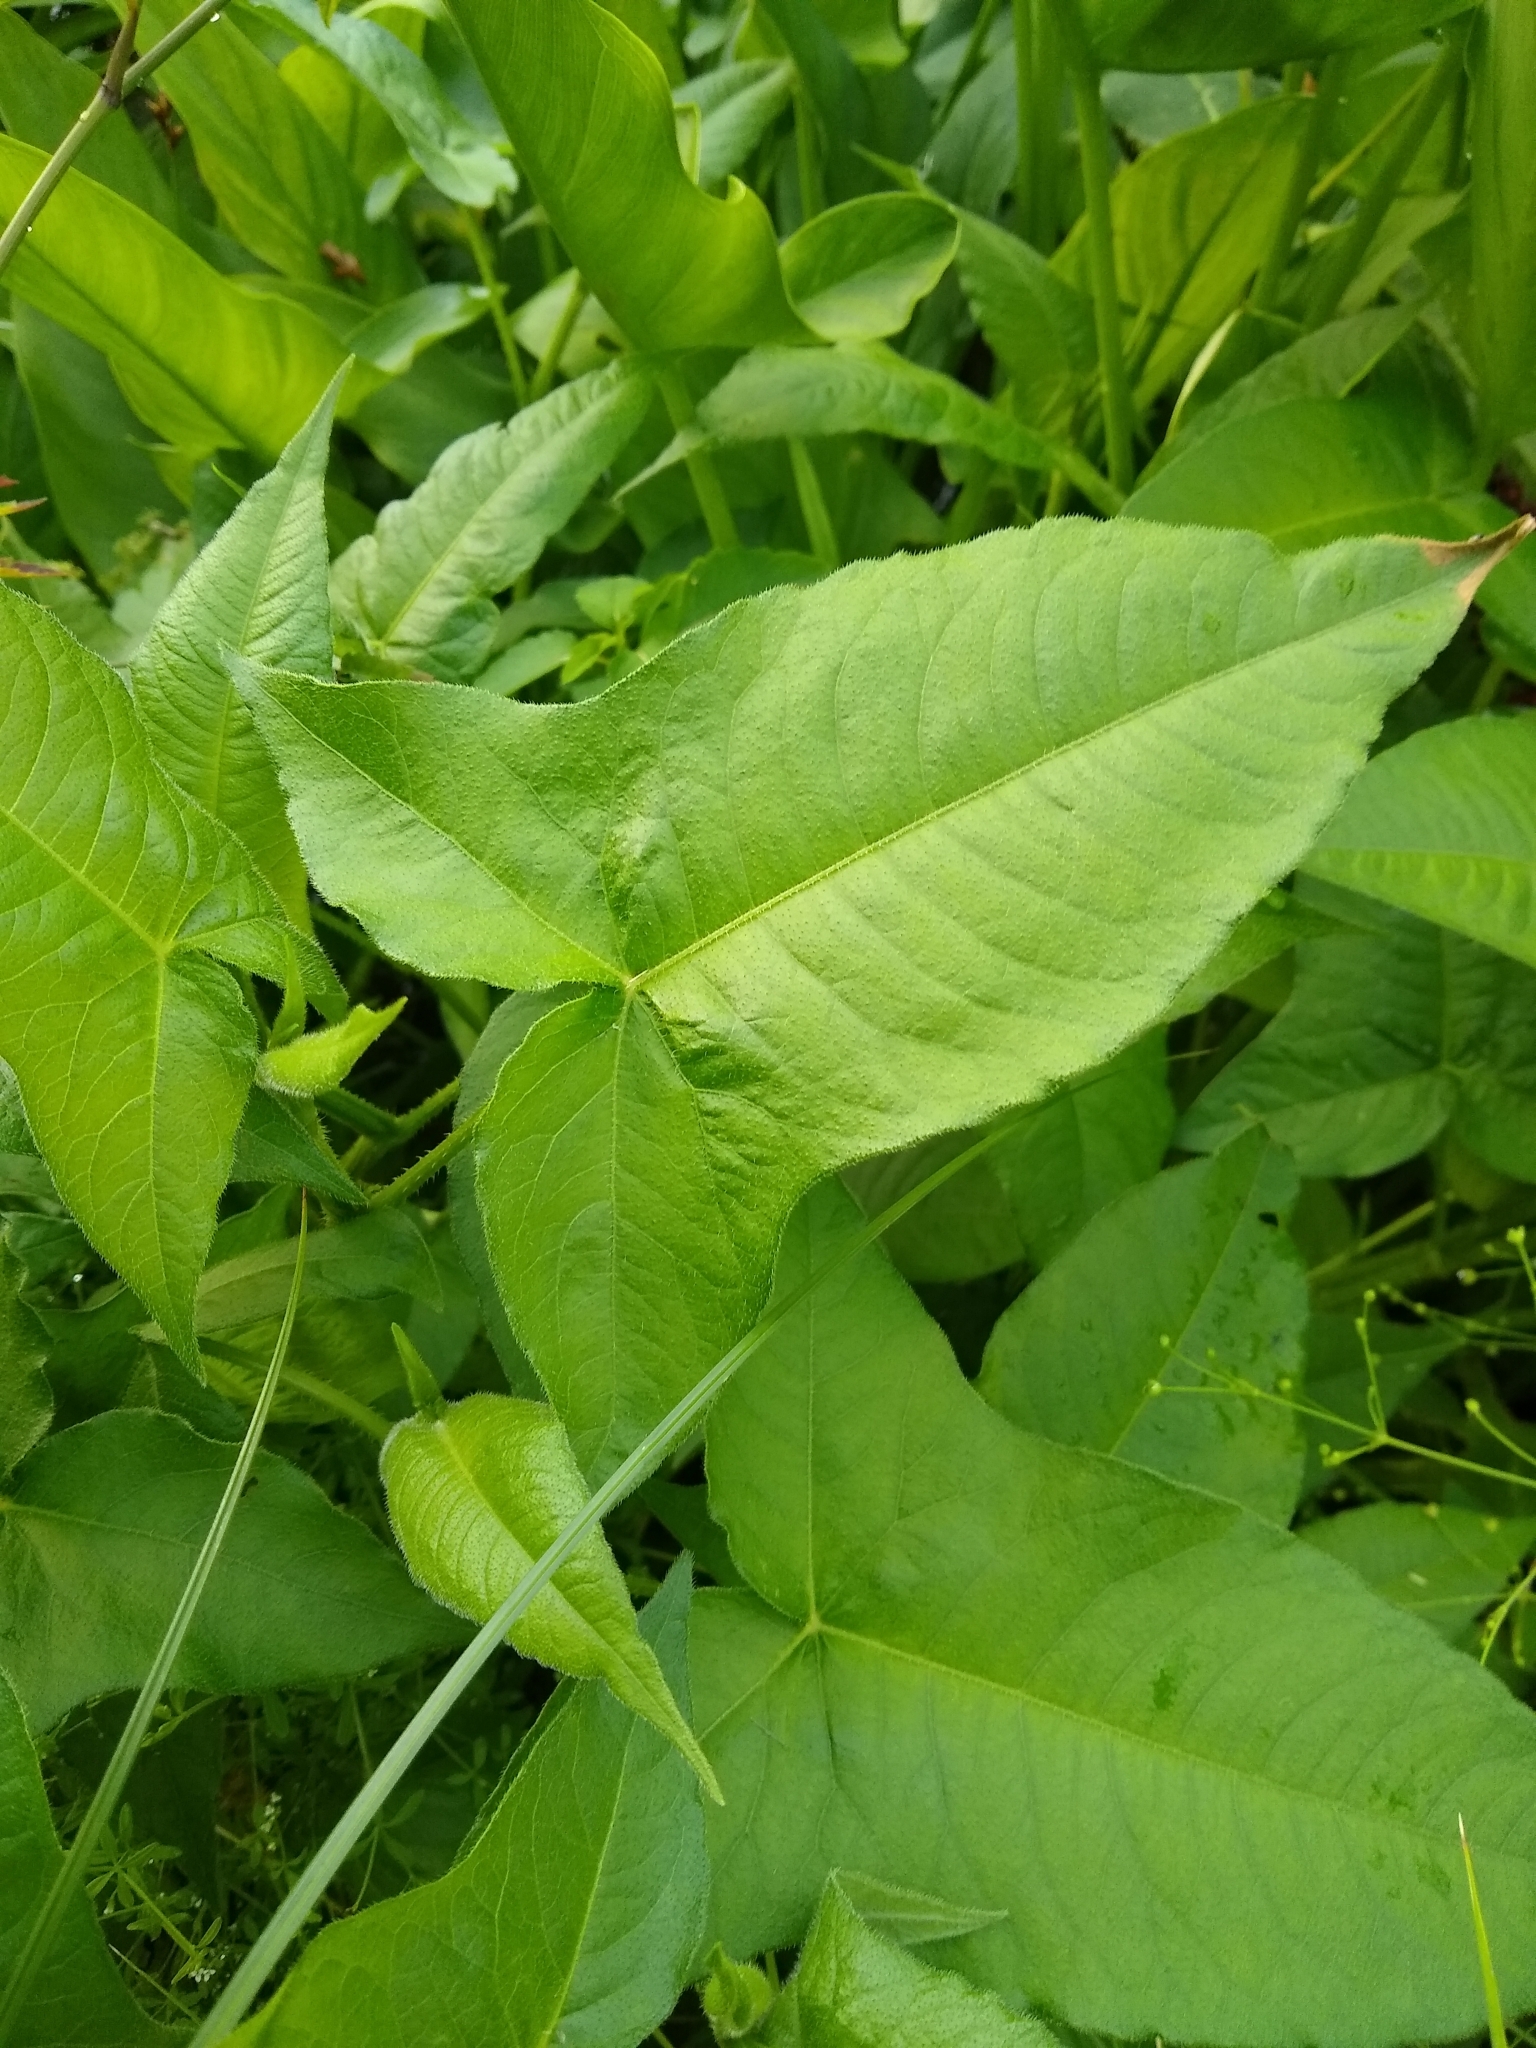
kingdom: Plantae
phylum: Tracheophyta
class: Magnoliopsida
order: Caryophyllales
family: Polygonaceae
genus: Persicaria
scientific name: Persicaria arifolia
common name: Halberd-leaved tear-thumb
